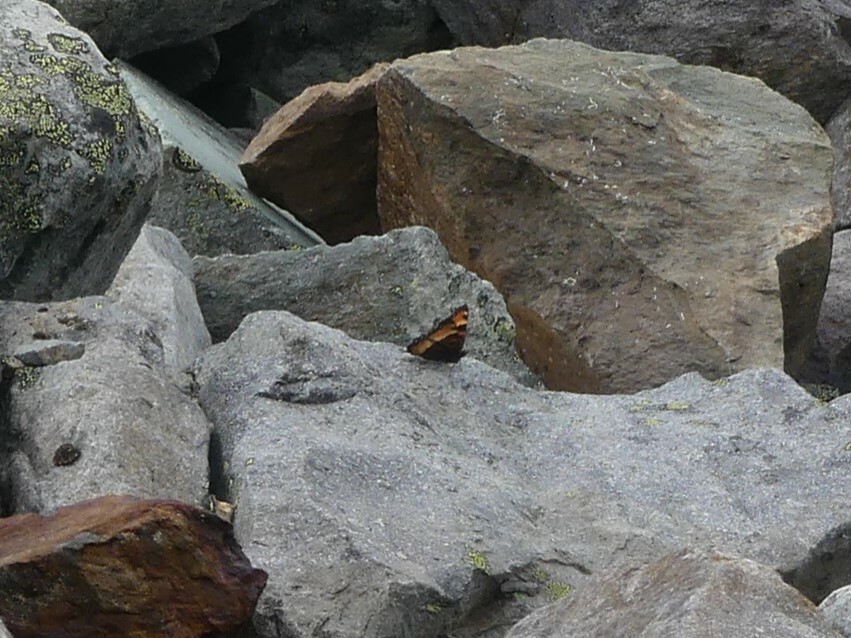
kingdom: Animalia
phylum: Arthropoda
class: Insecta
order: Lepidoptera
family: Nymphalidae
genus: Aglais
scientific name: Aglais milberti
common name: Milbert's tortoiseshell
